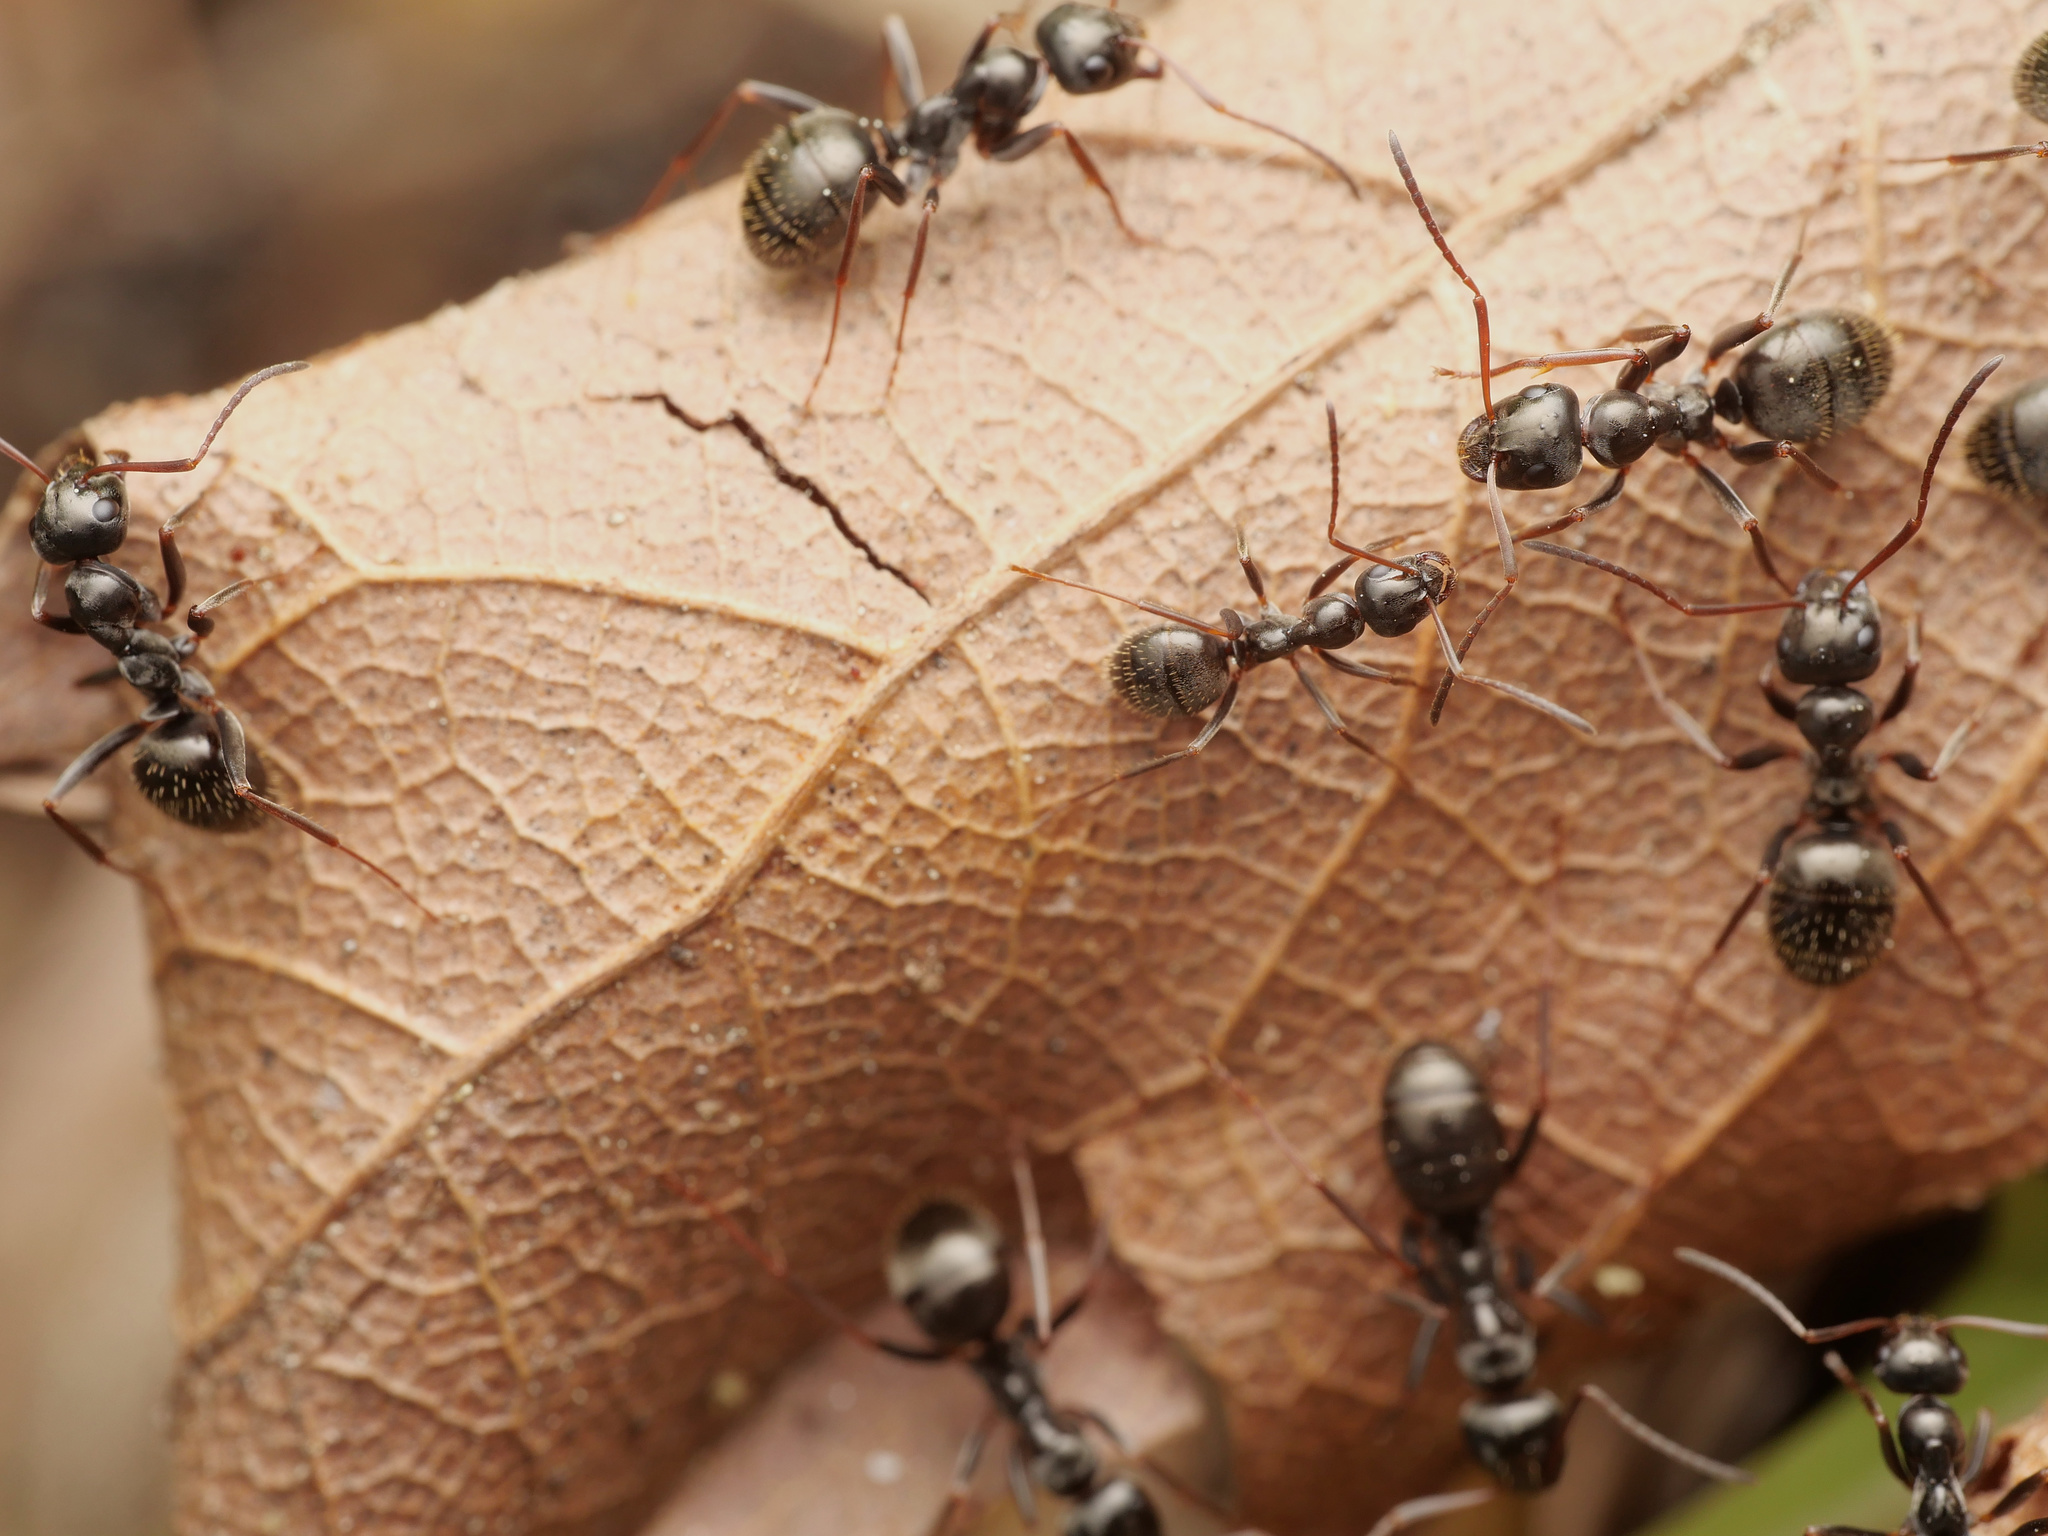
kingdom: Animalia
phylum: Arthropoda
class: Insecta
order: Hymenoptera
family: Formicidae
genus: Formica
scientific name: Formica gagates
